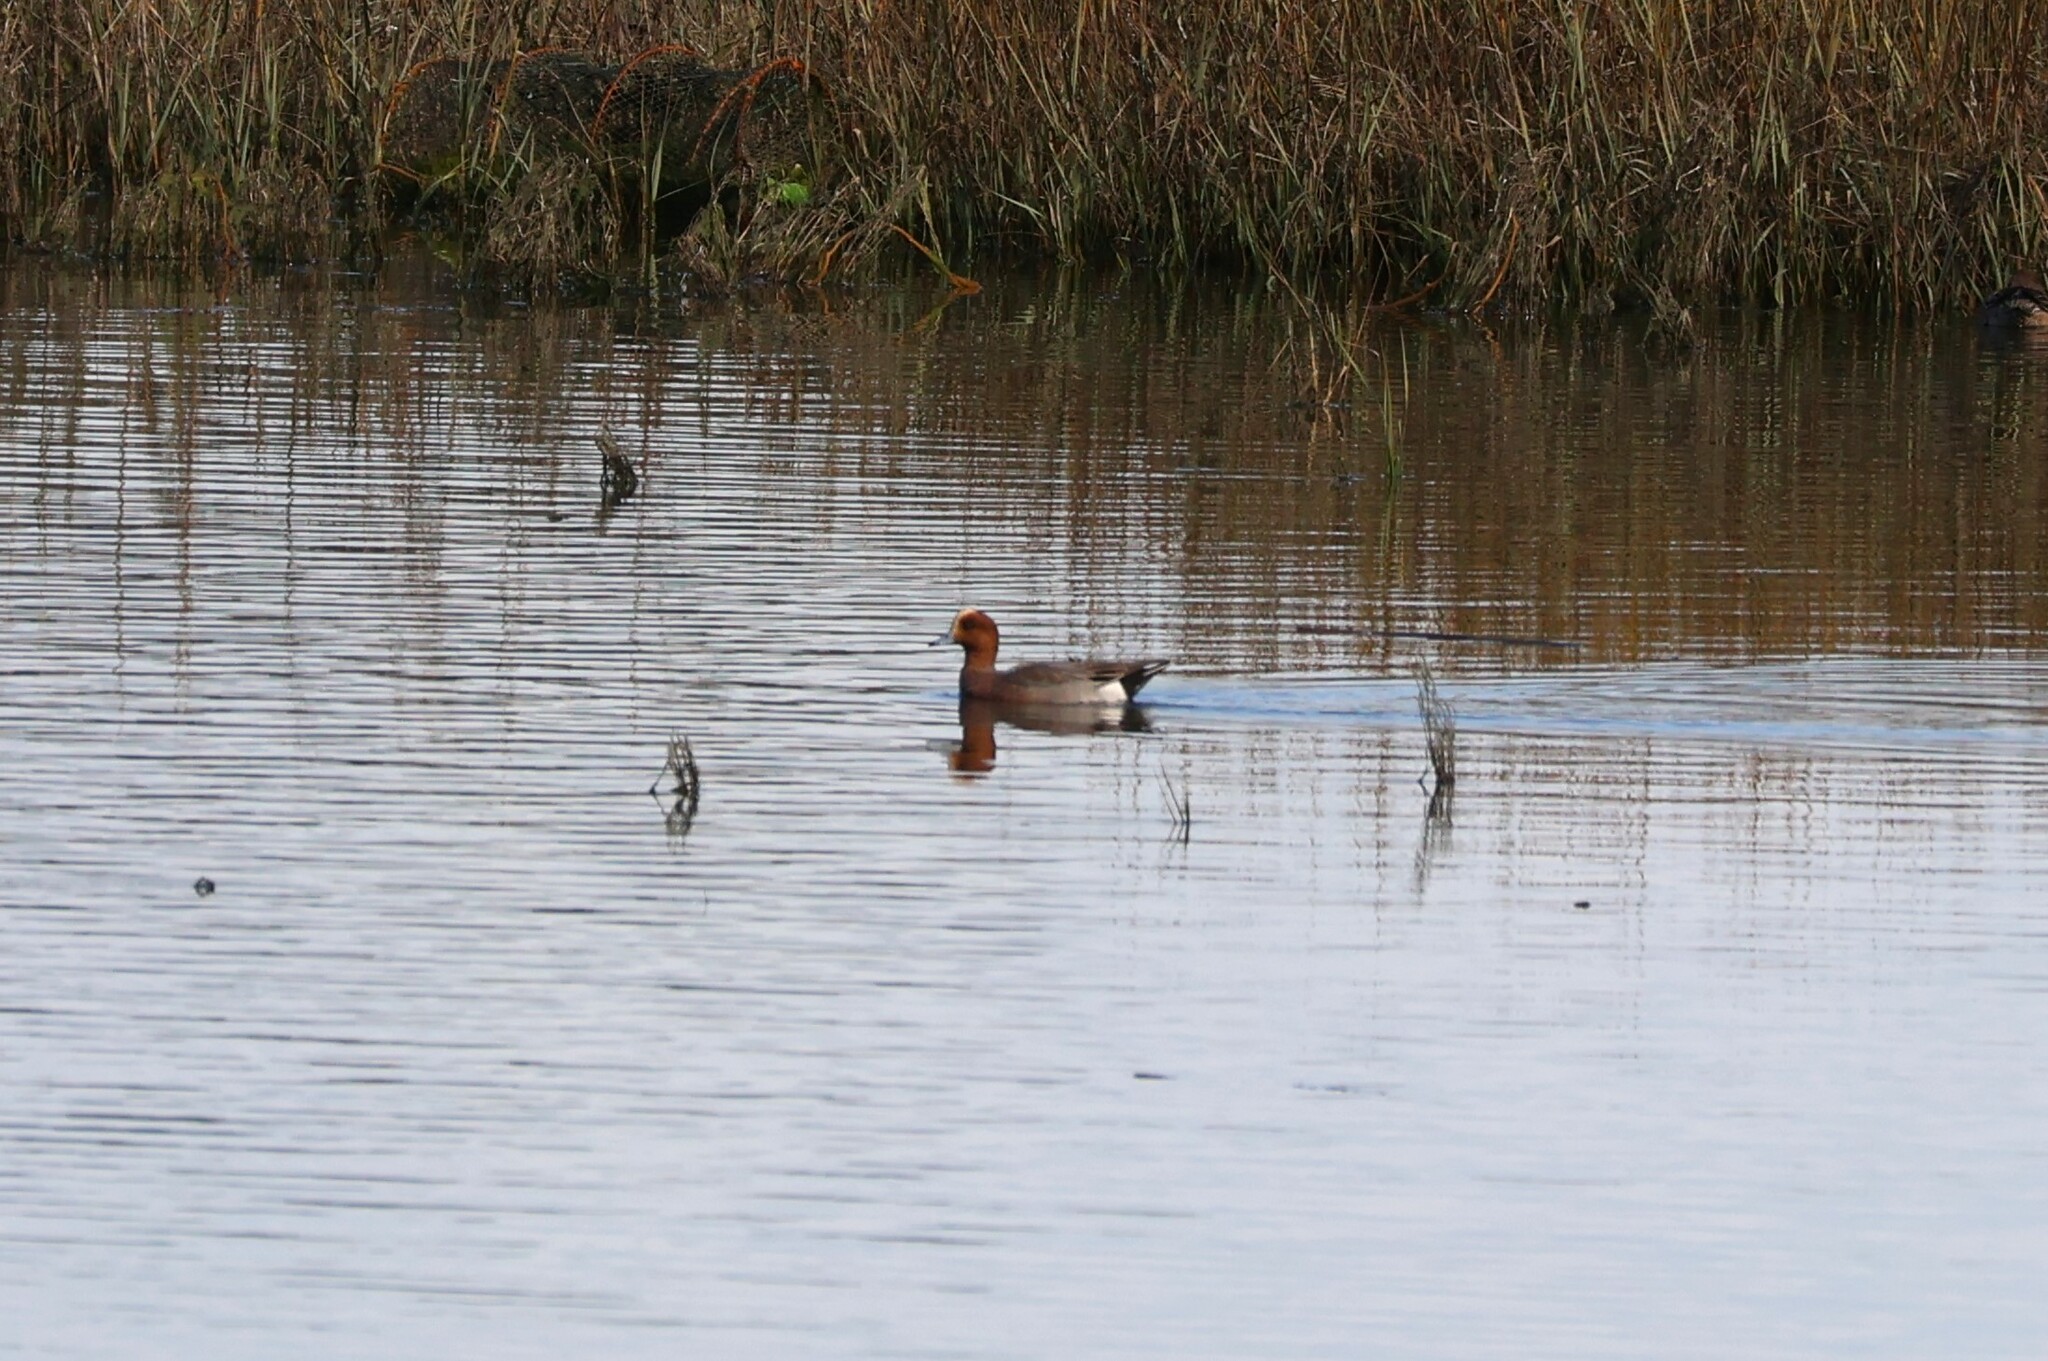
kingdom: Animalia
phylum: Chordata
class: Aves
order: Anseriformes
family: Anatidae
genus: Mareca
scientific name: Mareca penelope
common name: Eurasian wigeon
